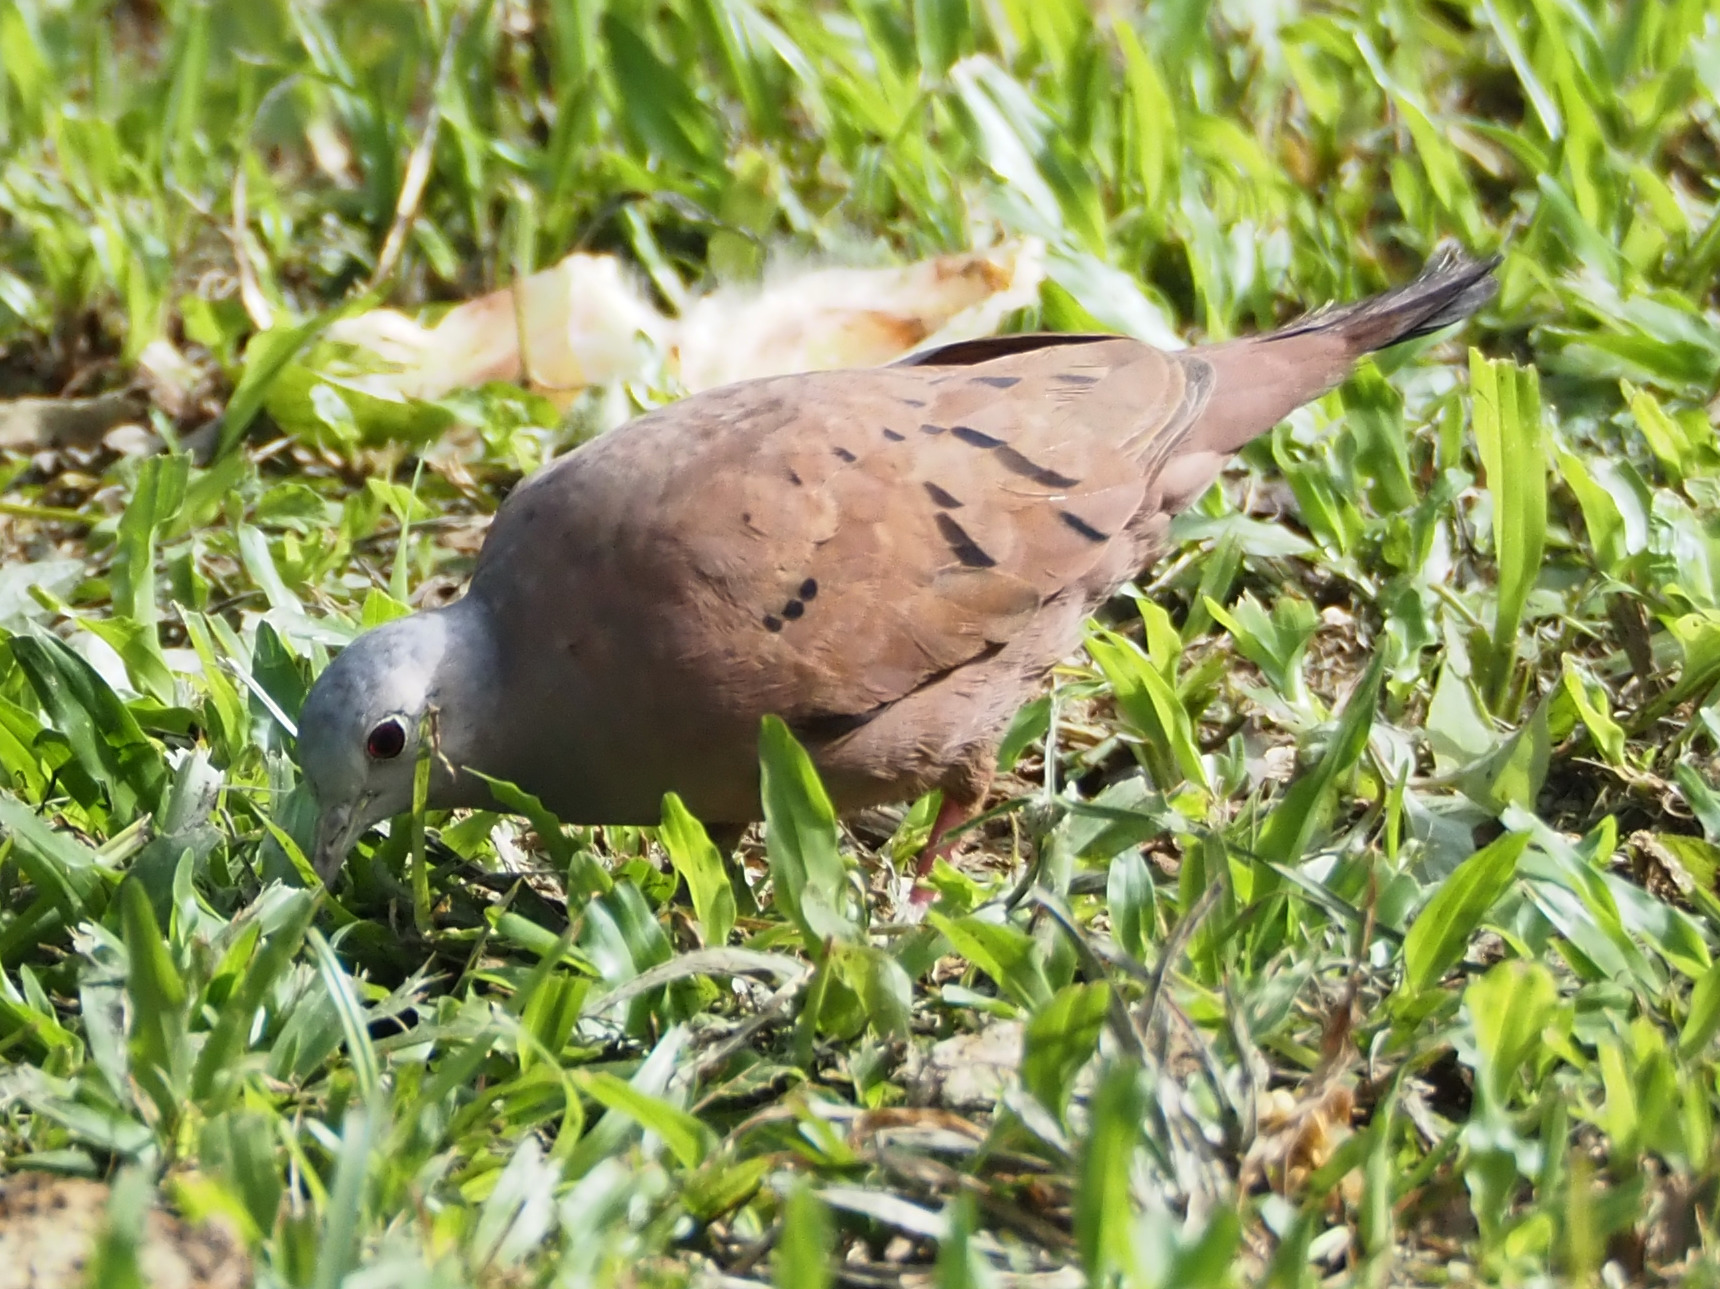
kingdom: Animalia
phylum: Chordata
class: Aves
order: Columbiformes
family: Columbidae
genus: Columbina
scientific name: Columbina talpacoti
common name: Ruddy ground dove
